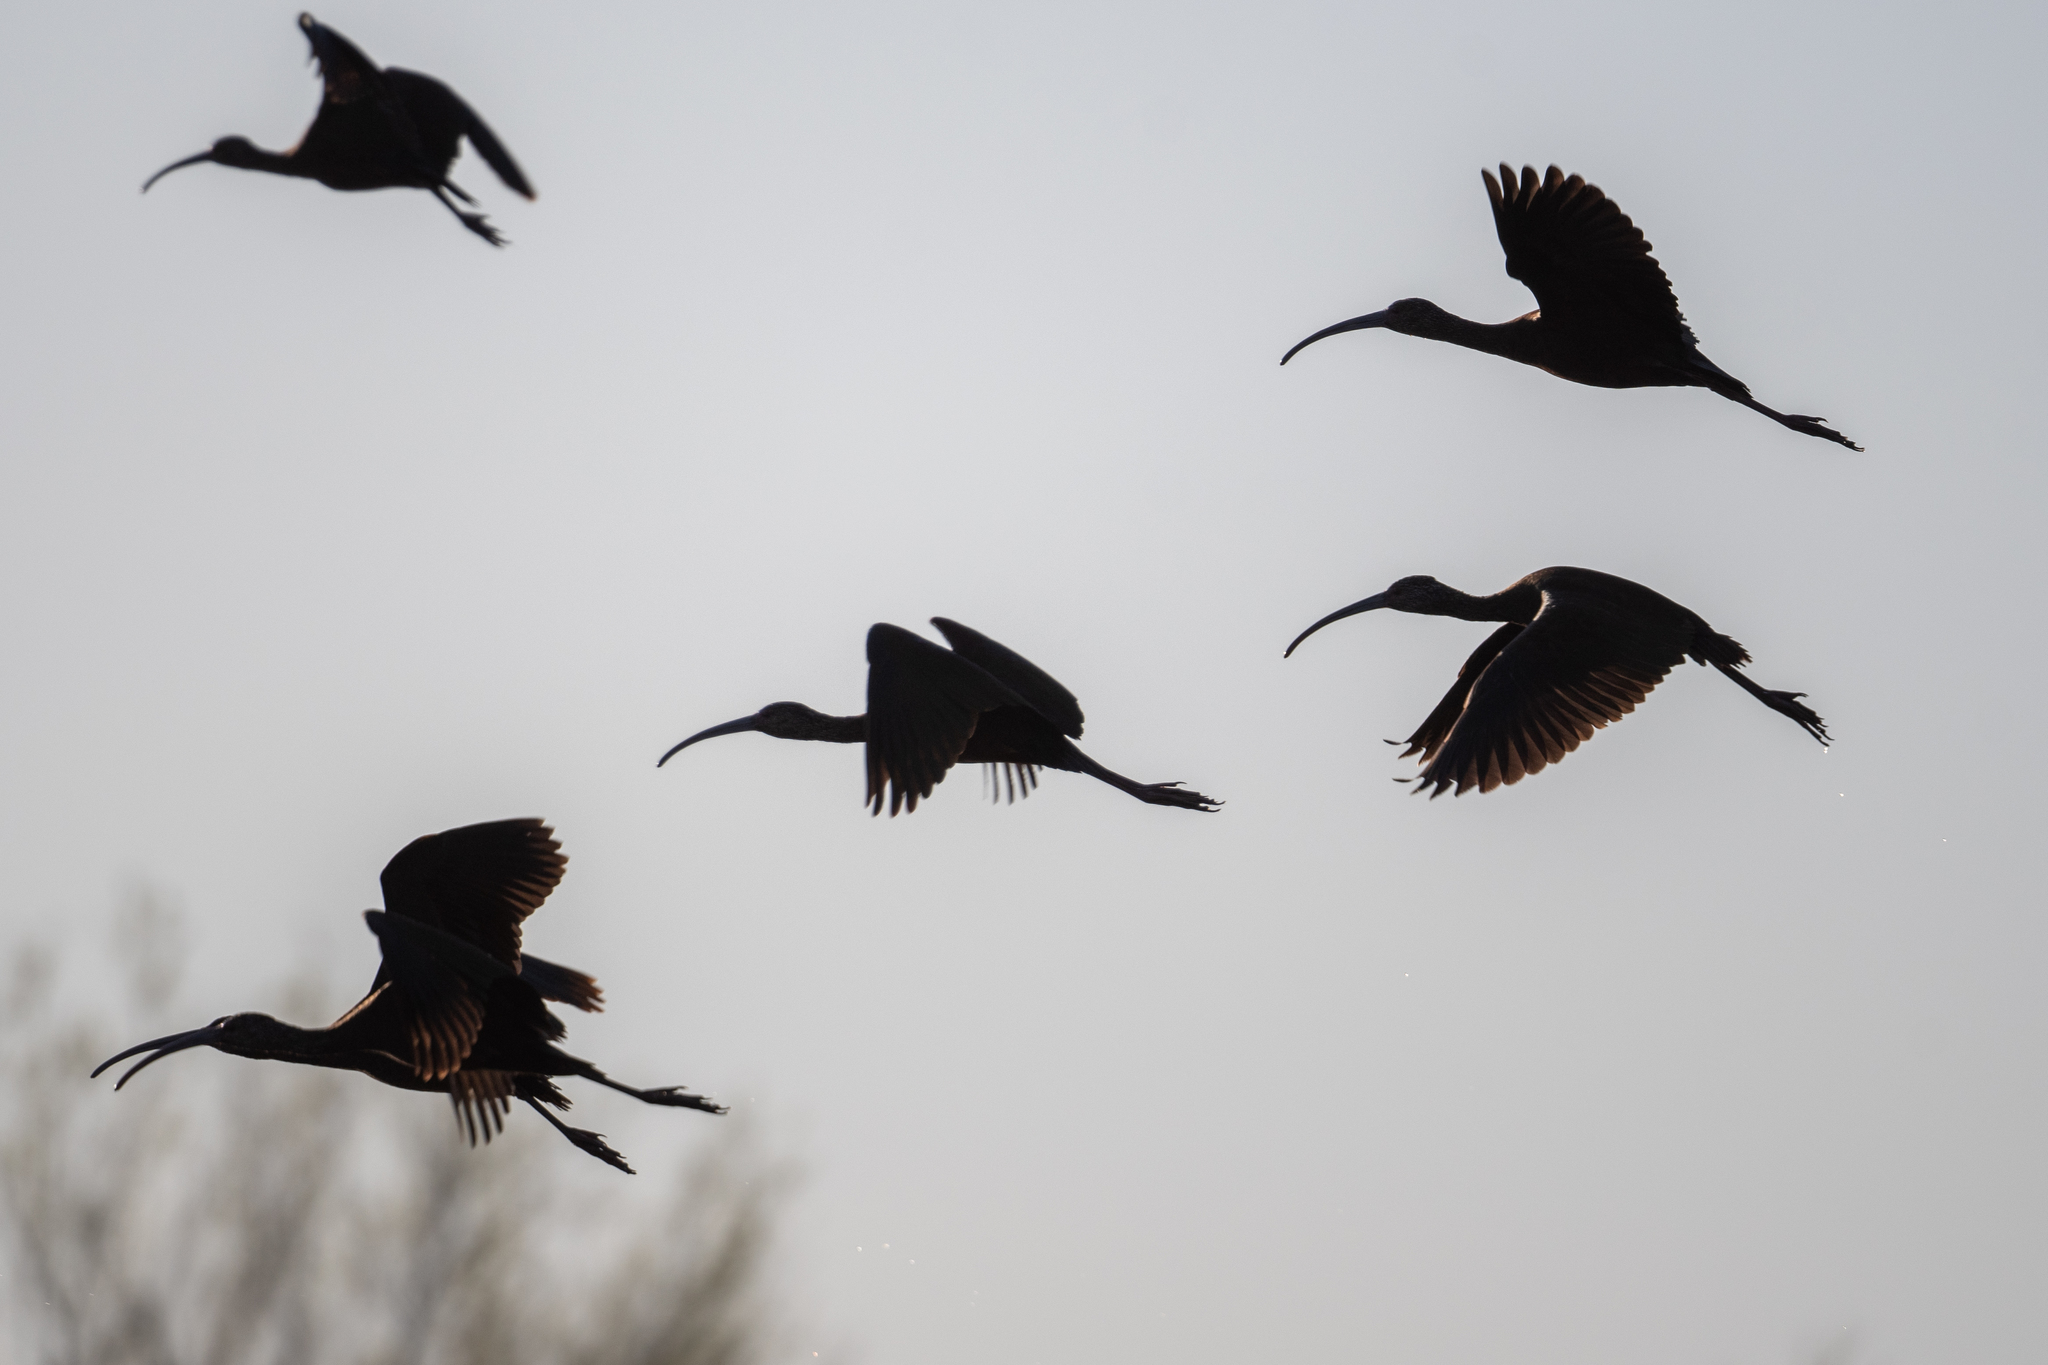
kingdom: Animalia
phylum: Chordata
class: Aves
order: Pelecaniformes
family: Threskiornithidae
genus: Plegadis
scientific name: Plegadis chihi
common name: White-faced ibis
